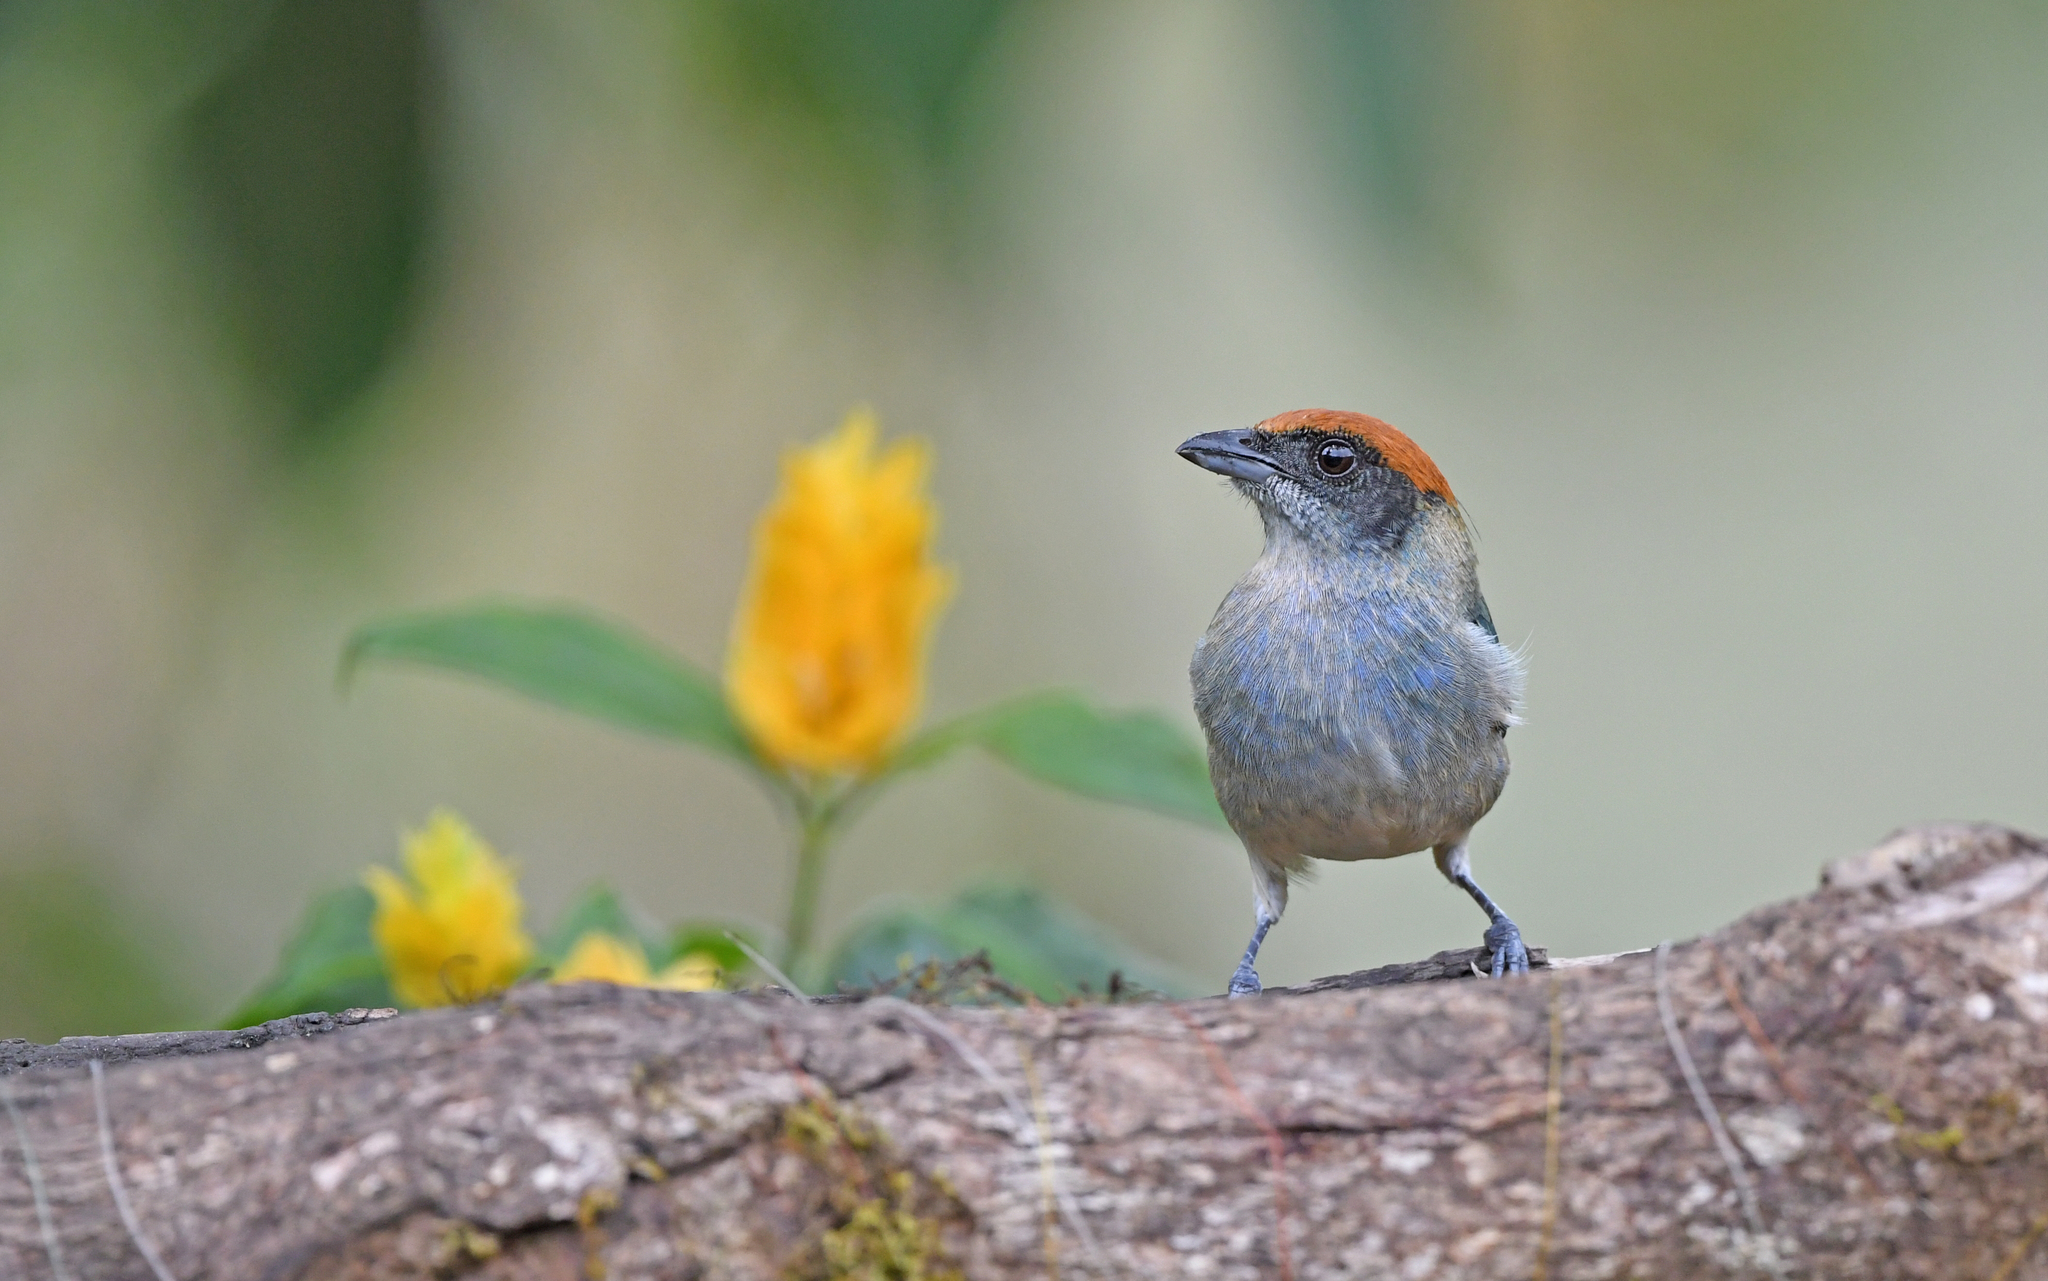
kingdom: Animalia
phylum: Chordata
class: Aves
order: Passeriformes
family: Thraupidae
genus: Stilpnia
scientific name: Stilpnia vitriolina
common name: Scrub tanager
